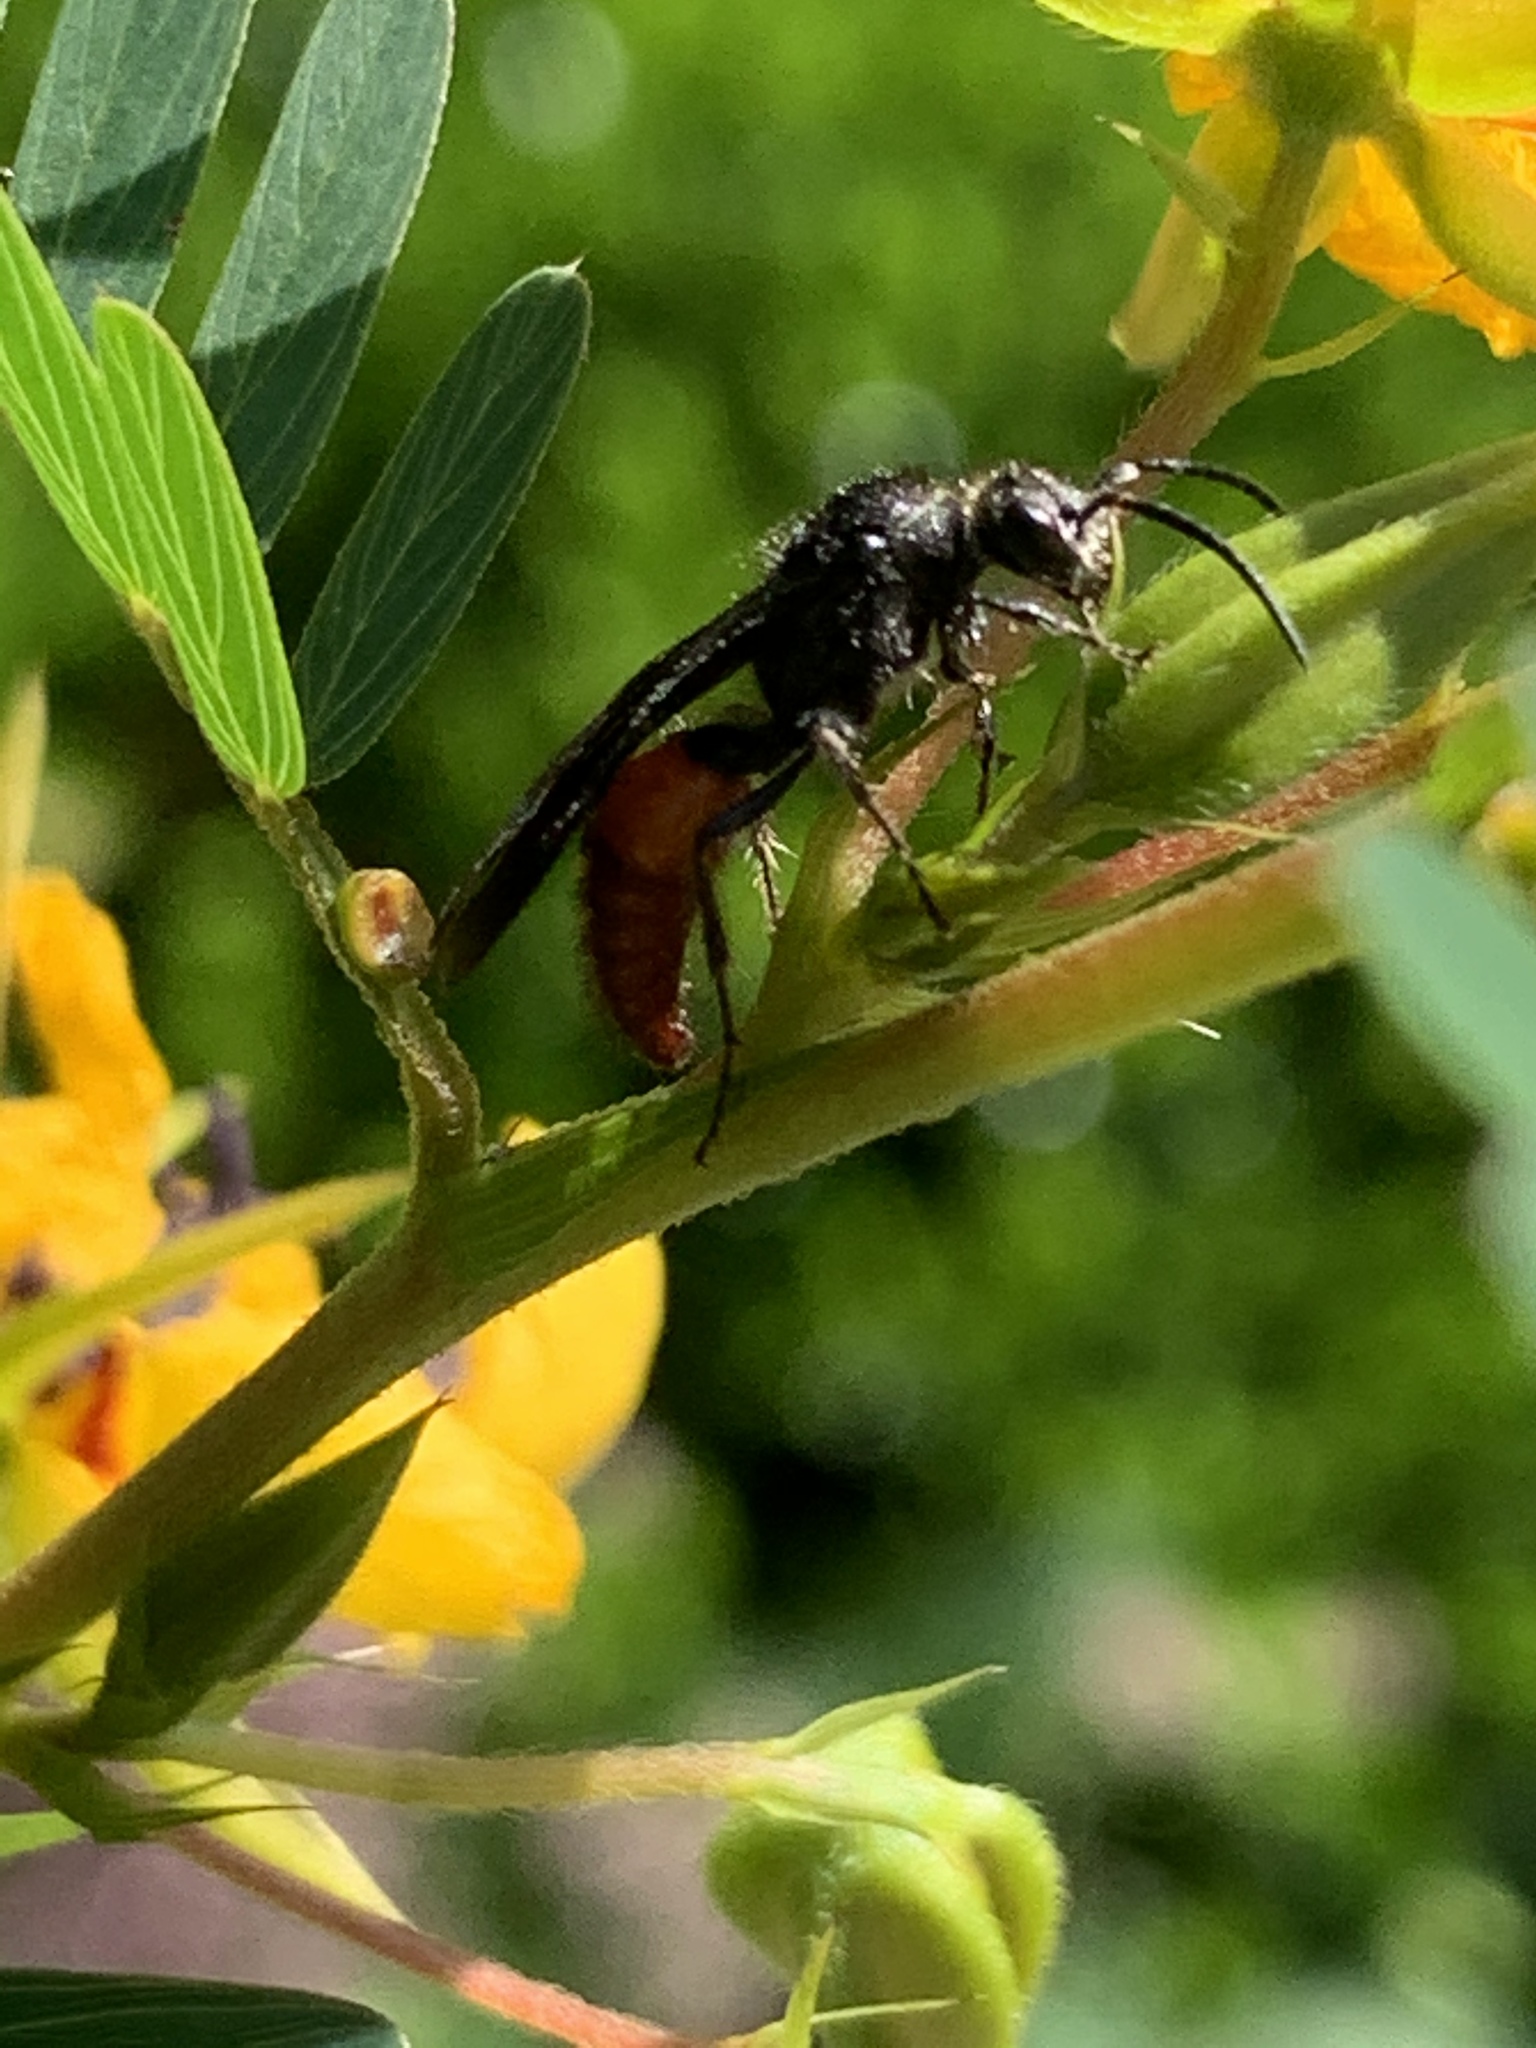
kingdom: Animalia
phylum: Arthropoda
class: Insecta
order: Hymenoptera
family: Mutillidae
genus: Timulla
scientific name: Timulla
